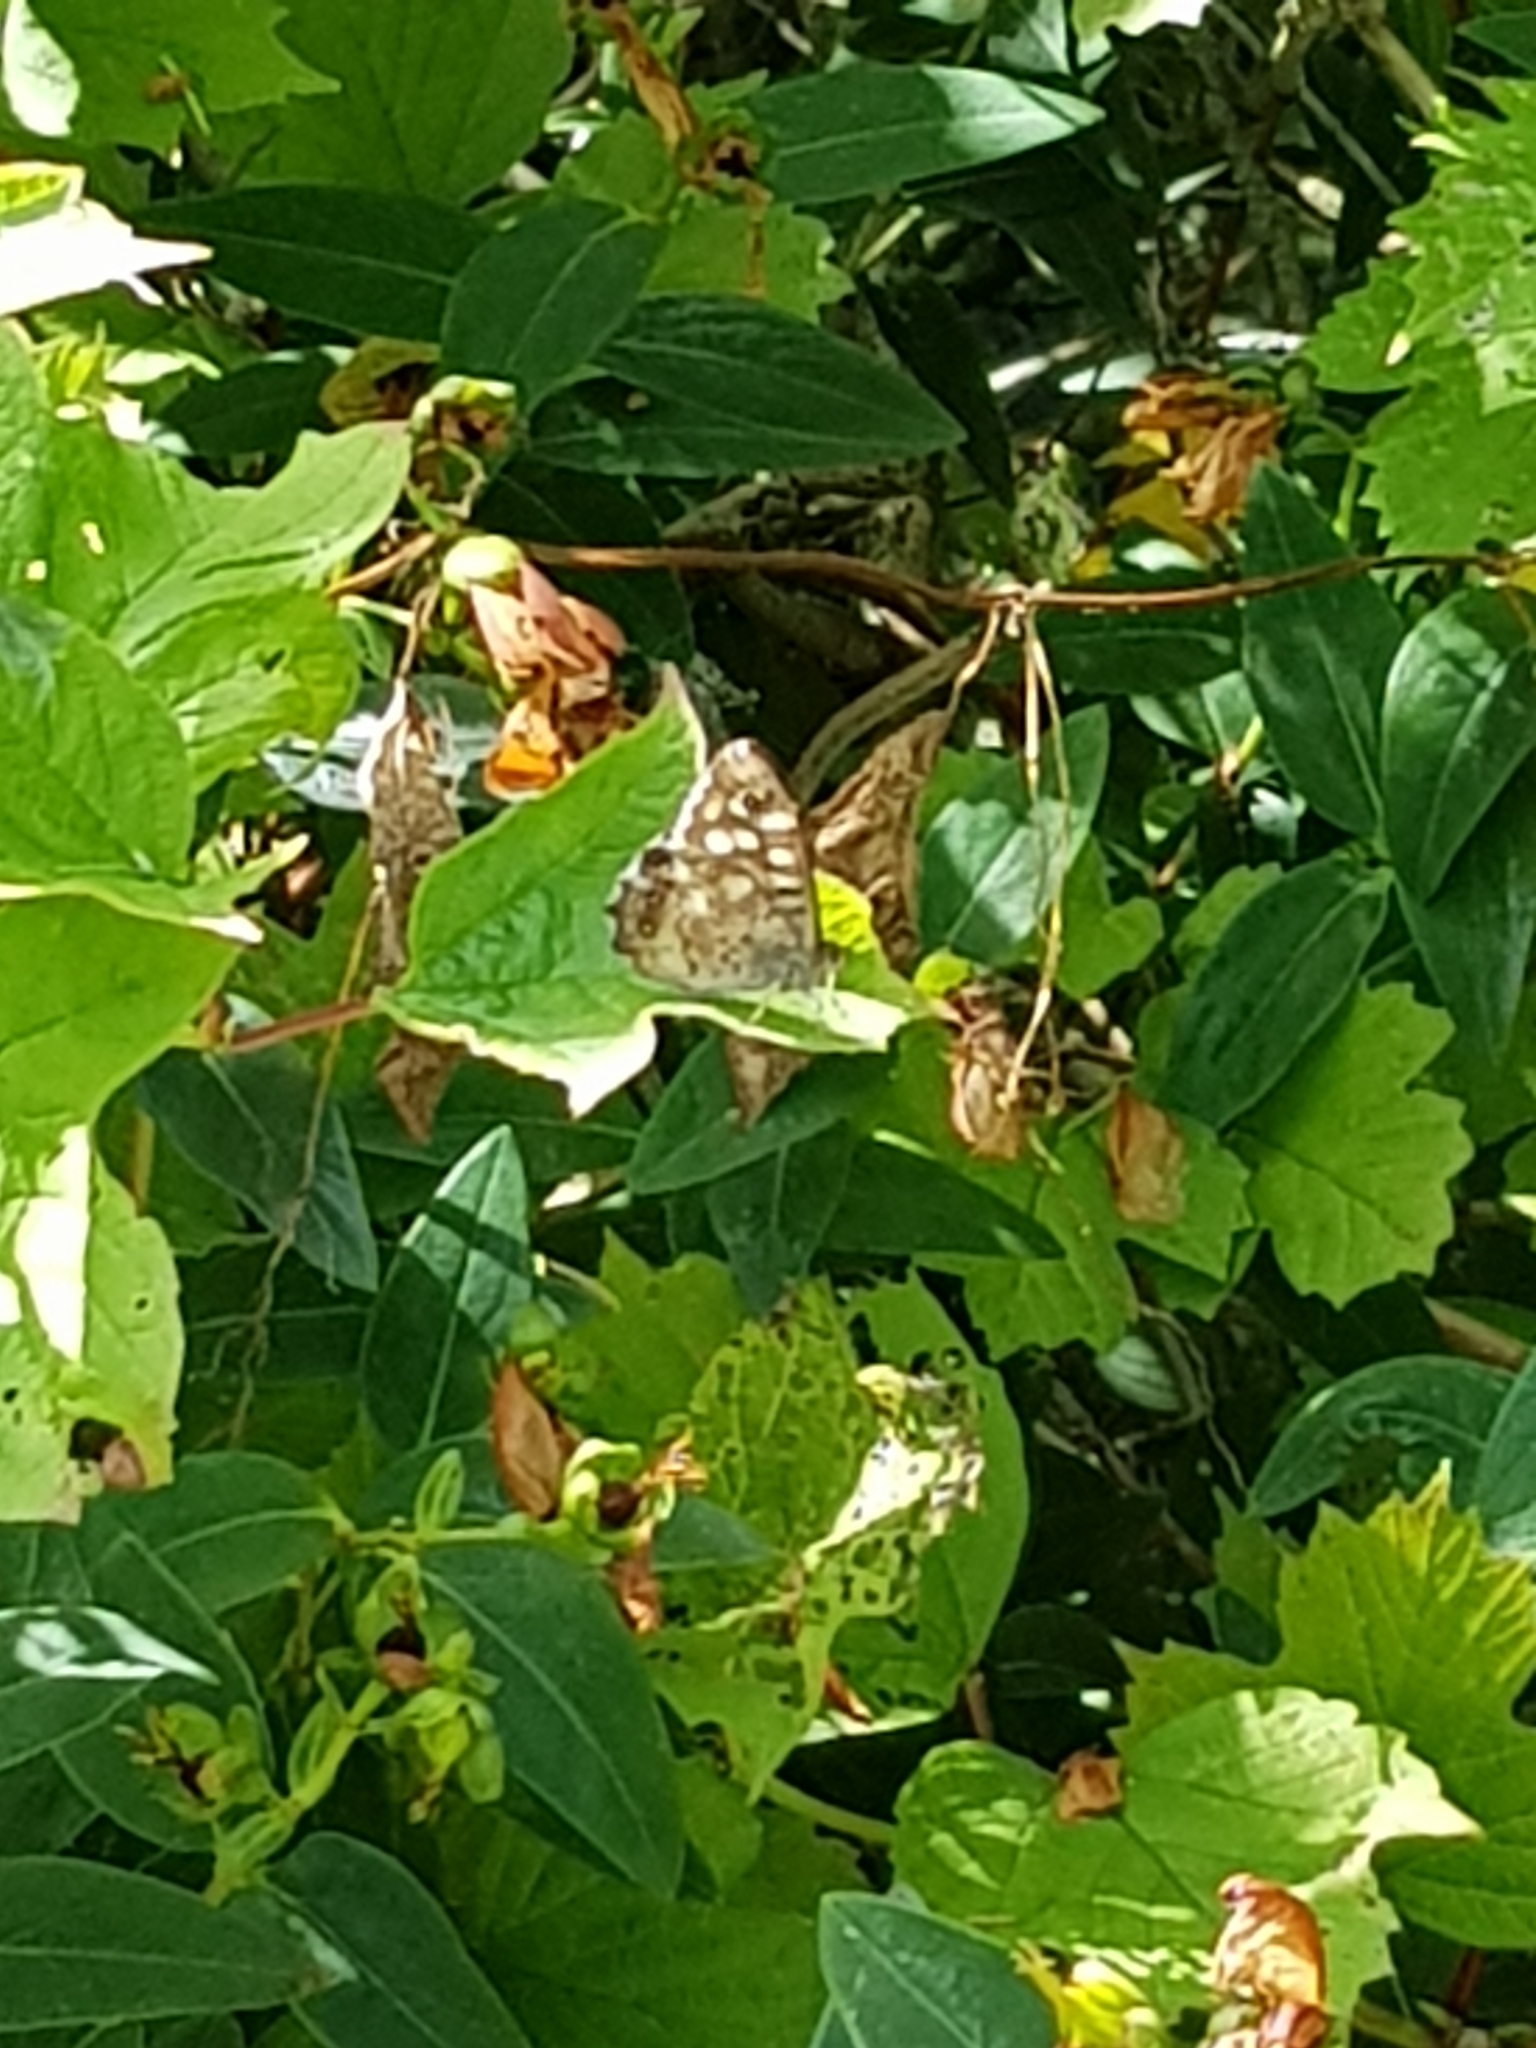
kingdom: Animalia
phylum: Arthropoda
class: Insecta
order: Lepidoptera
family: Nymphalidae
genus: Pararge
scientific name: Pararge aegeria
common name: Speckled wood
